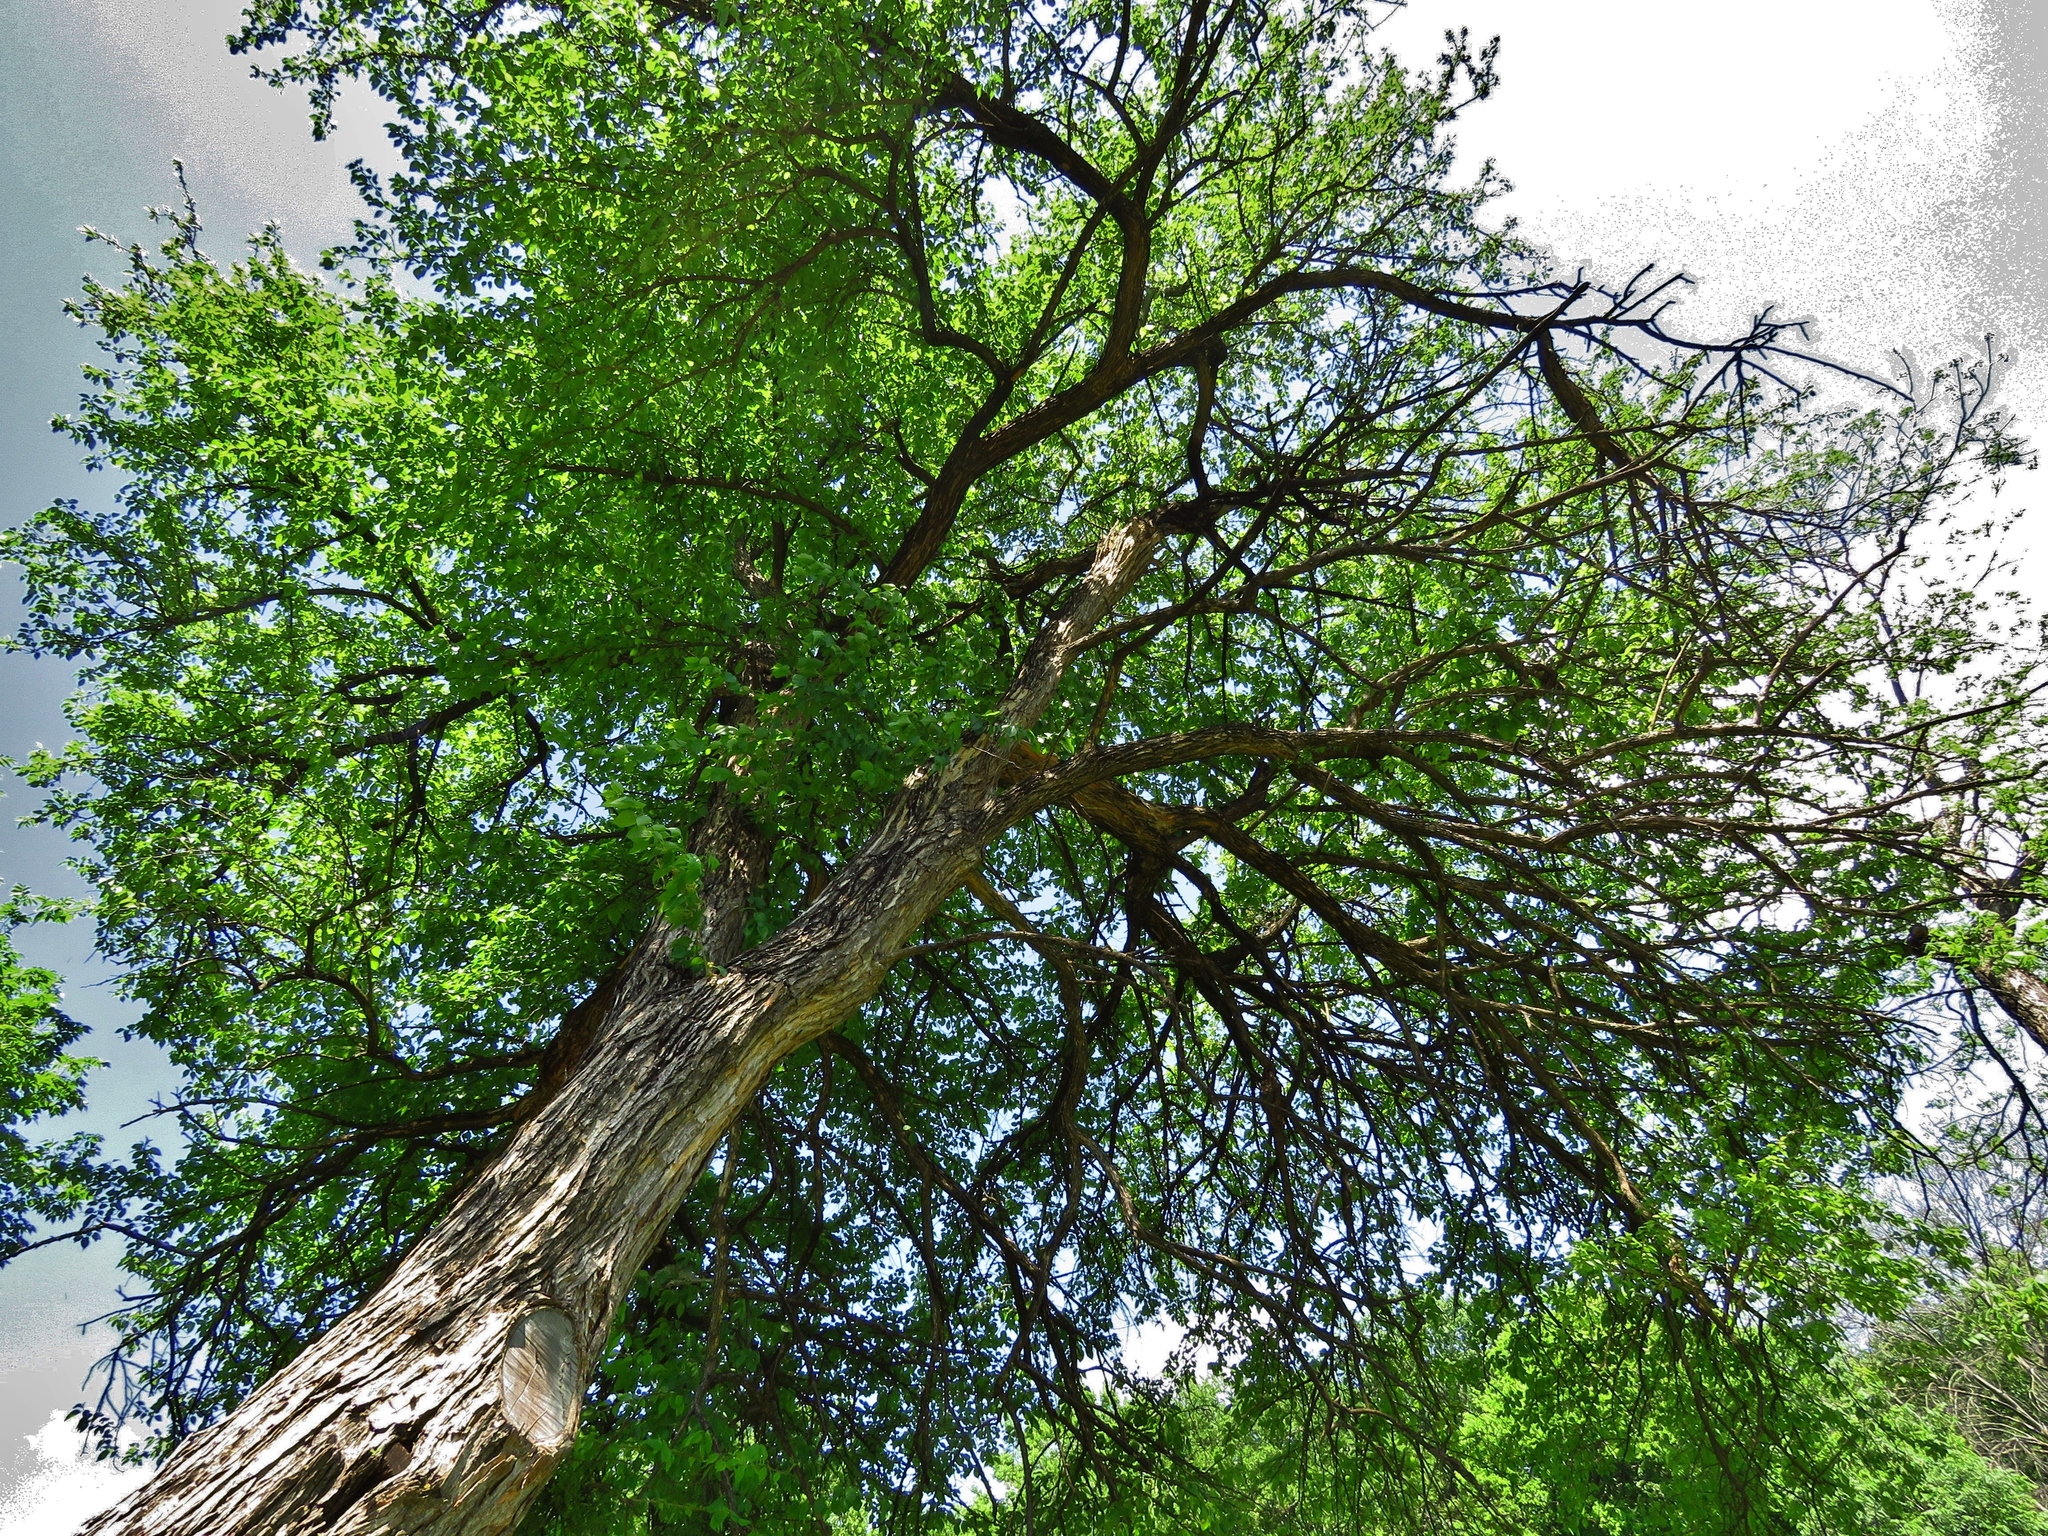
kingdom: Plantae
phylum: Tracheophyta
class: Magnoliopsida
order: Rosales
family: Moraceae
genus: Maclura
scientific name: Maclura pomifera
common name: Osage-orange
